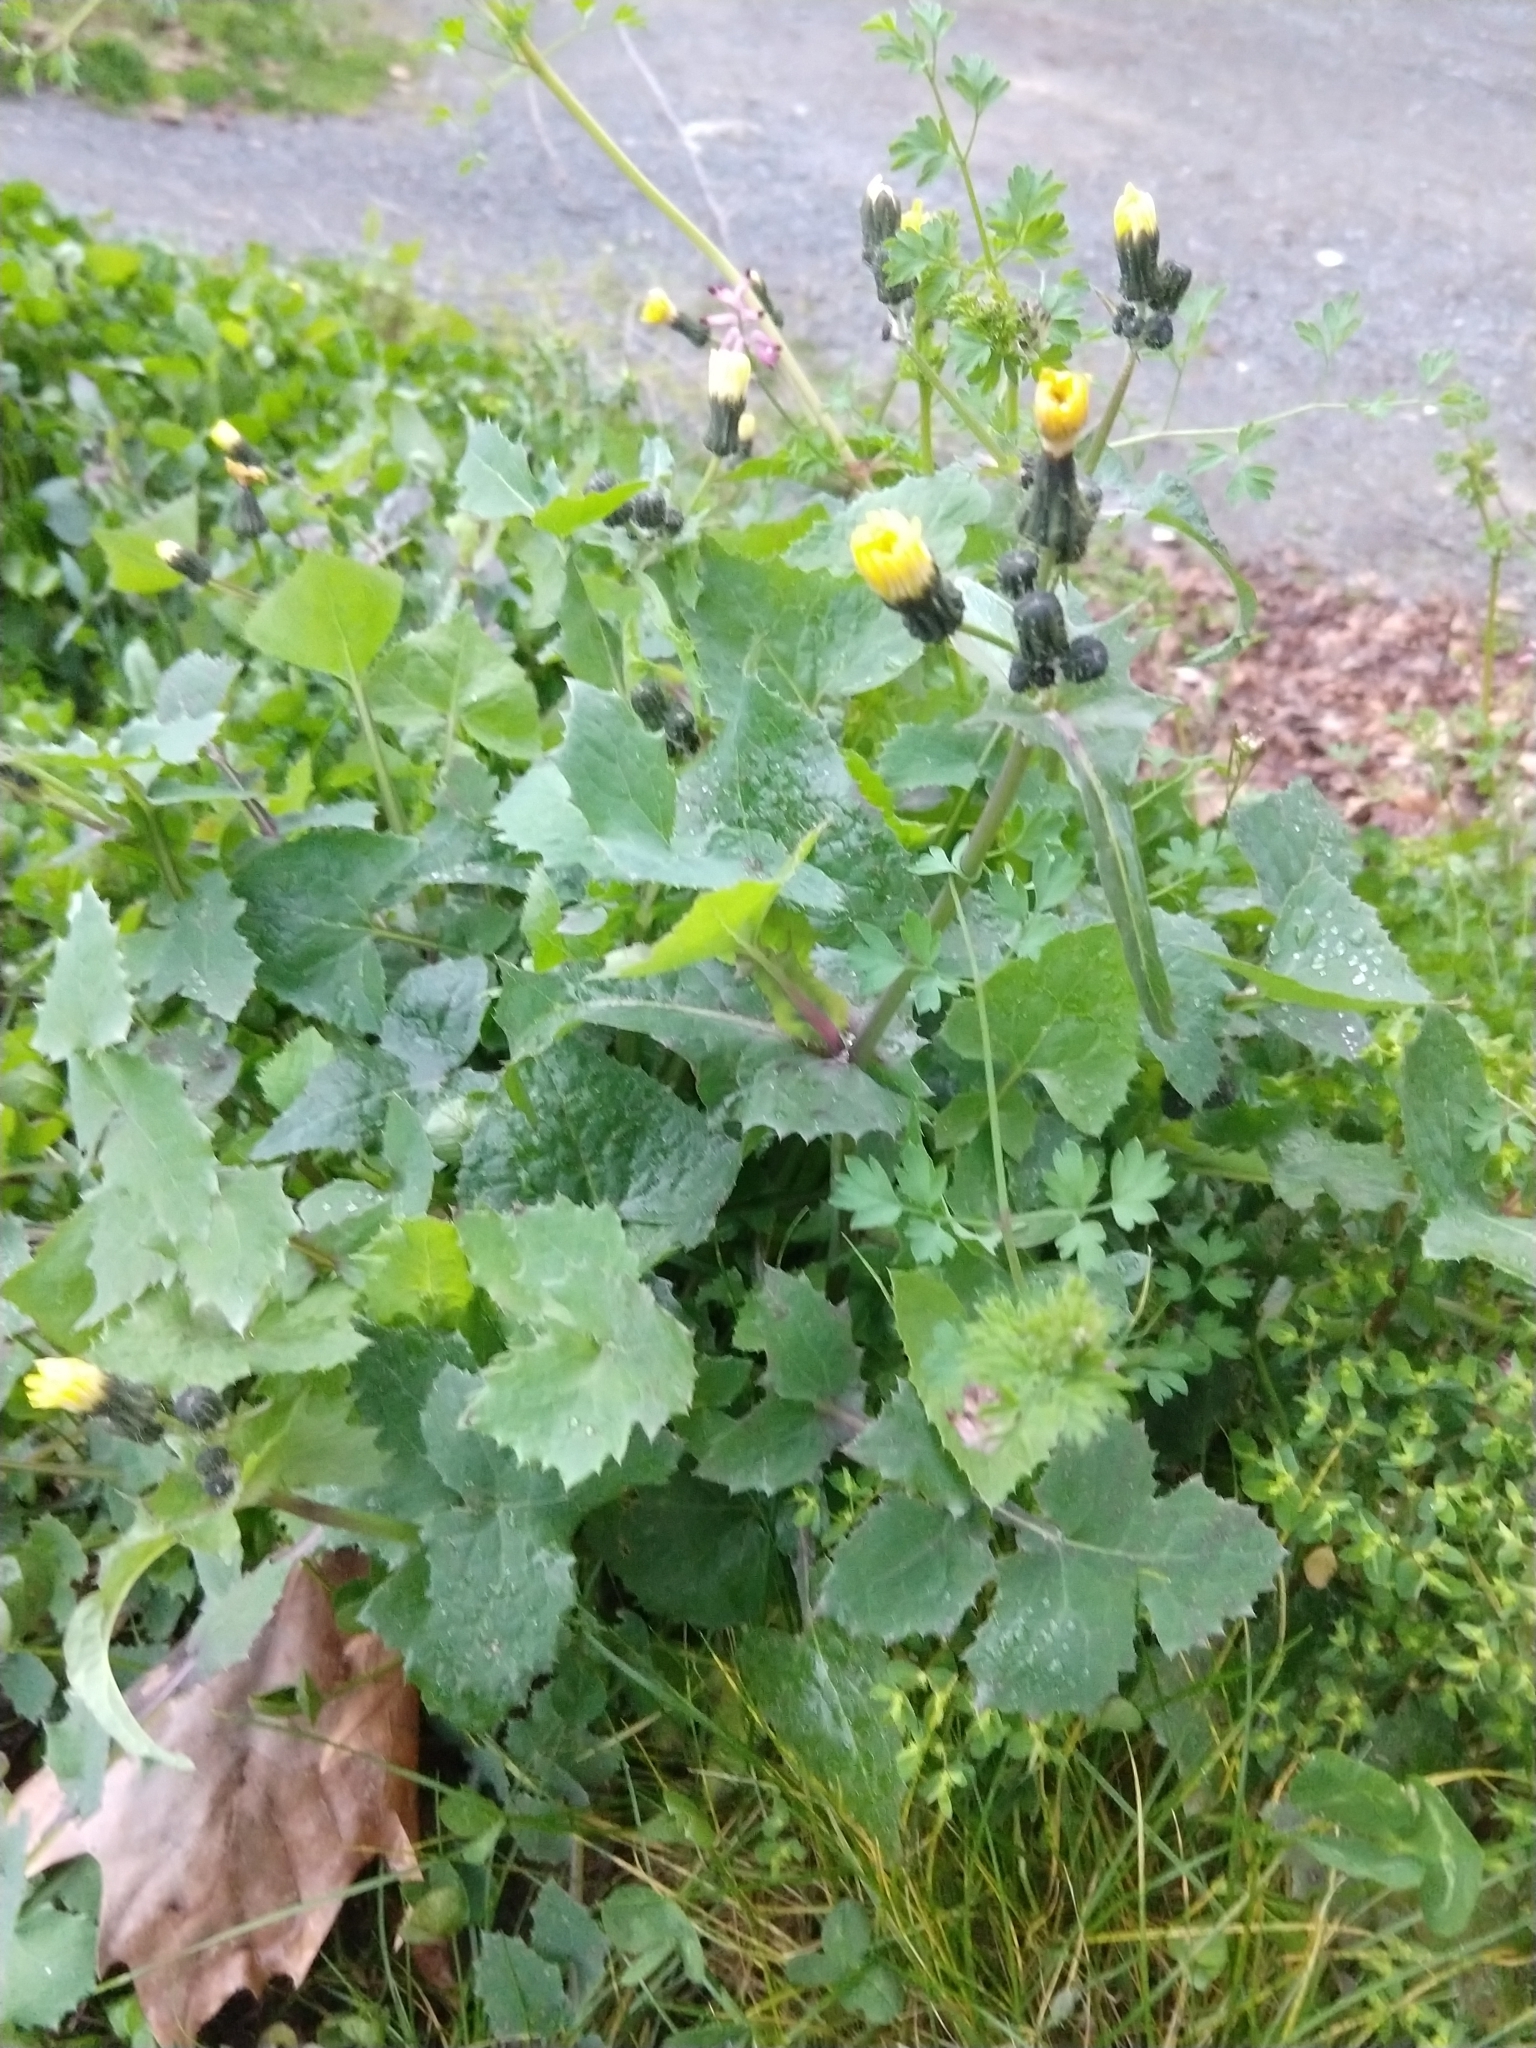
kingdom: Plantae
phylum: Tracheophyta
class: Magnoliopsida
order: Asterales
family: Asteraceae
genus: Sonchus
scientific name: Sonchus oleraceus
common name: Common sowthistle
